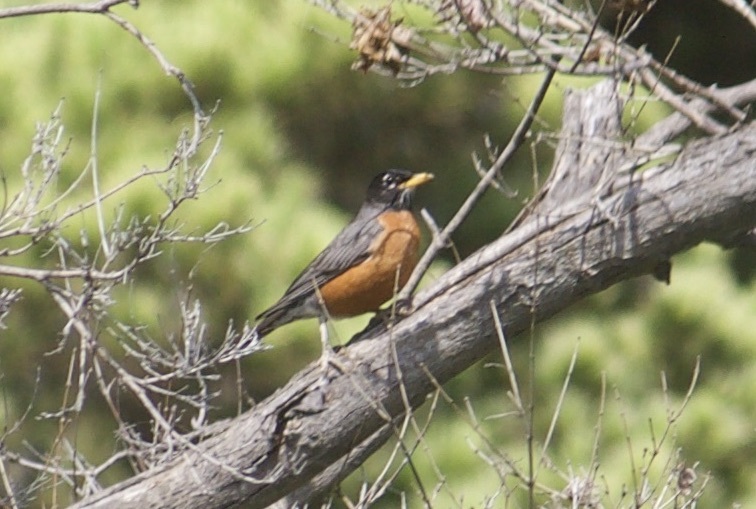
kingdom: Animalia
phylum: Chordata
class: Aves
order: Passeriformes
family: Turdidae
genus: Turdus
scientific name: Turdus migratorius
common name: American robin
